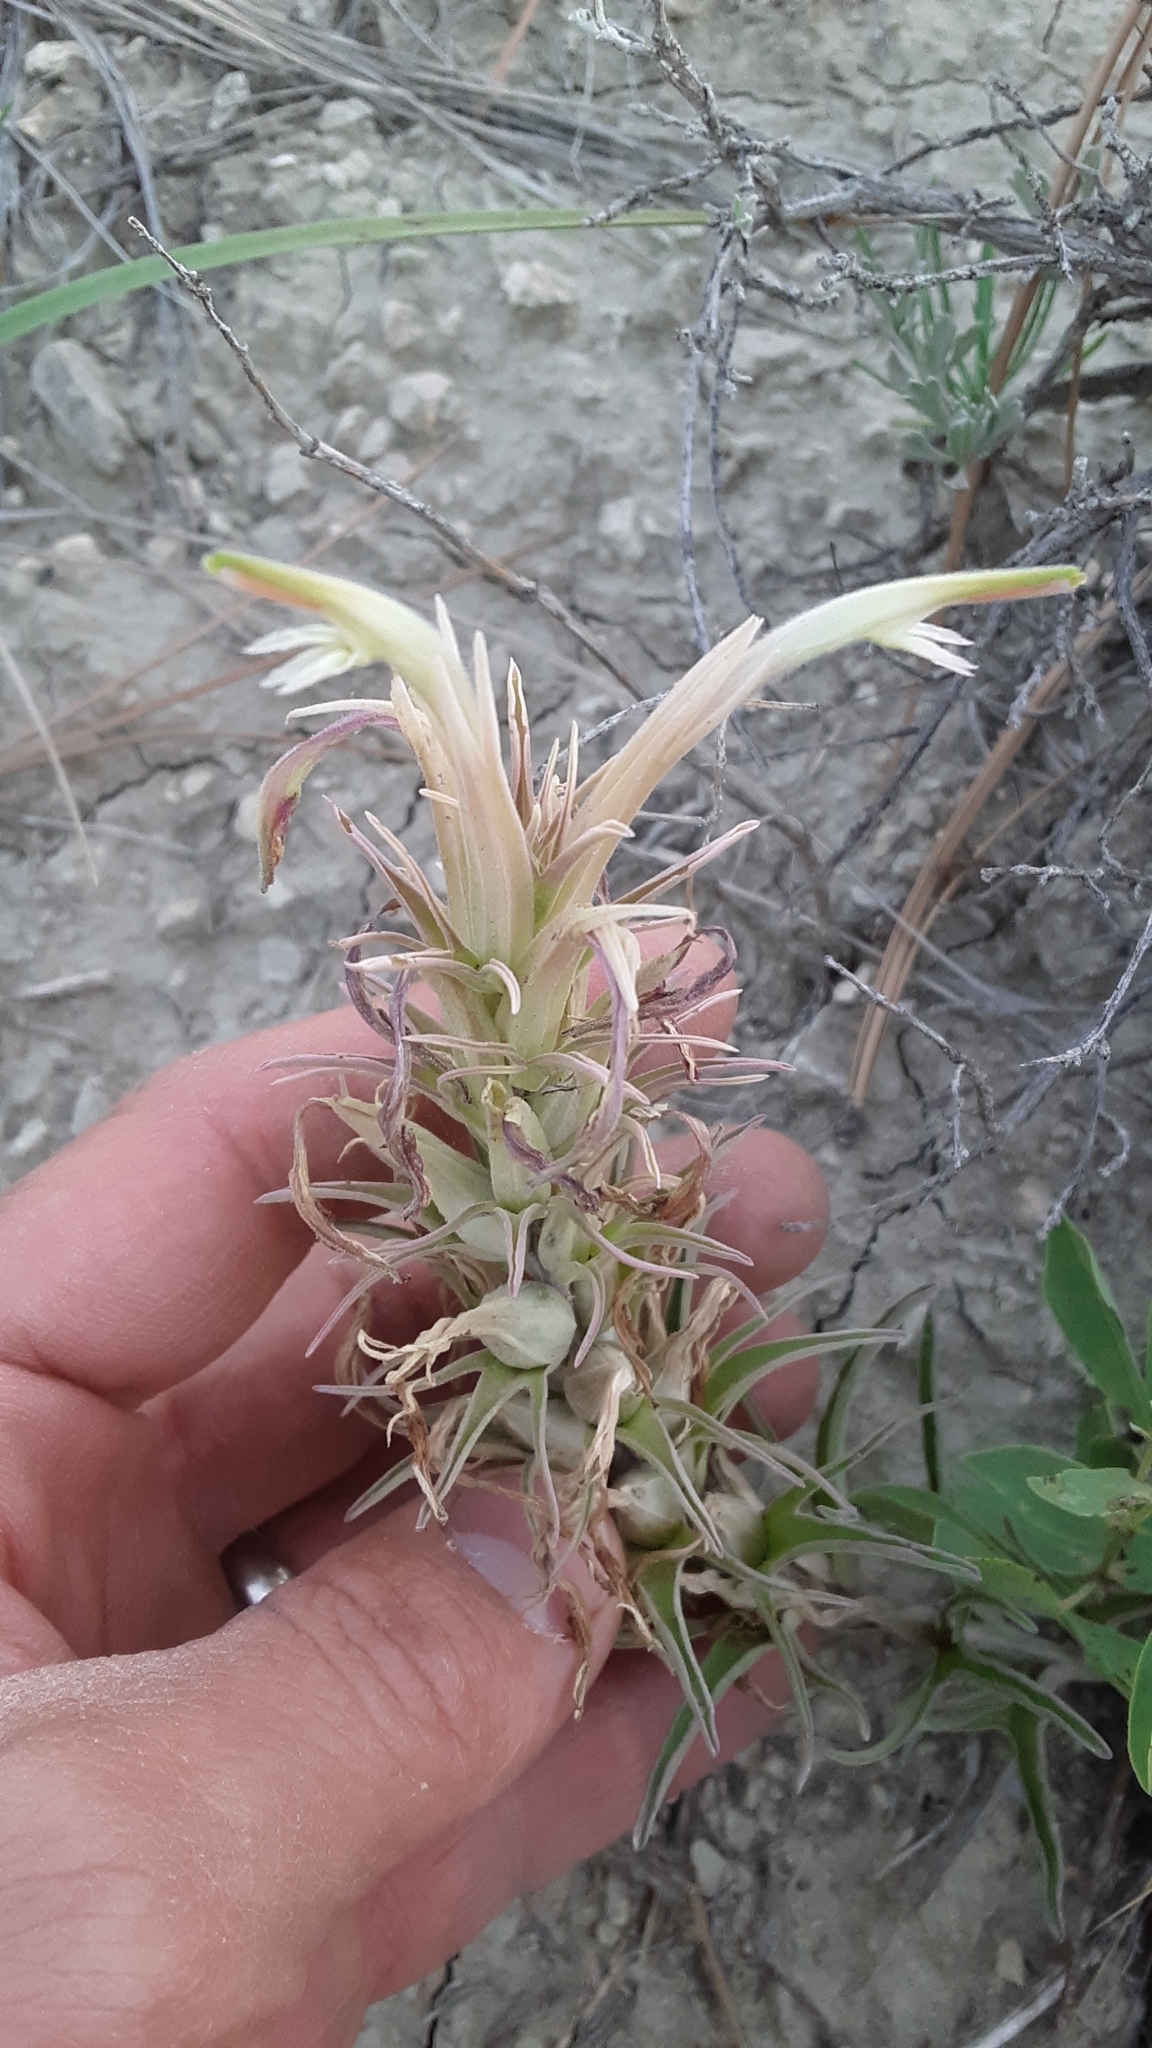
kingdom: Plantae
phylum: Tracheophyta
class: Magnoliopsida
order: Lamiales
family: Orobanchaceae
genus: Castilleja
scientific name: Castilleja sessiliflora
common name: Downy paintbrush
